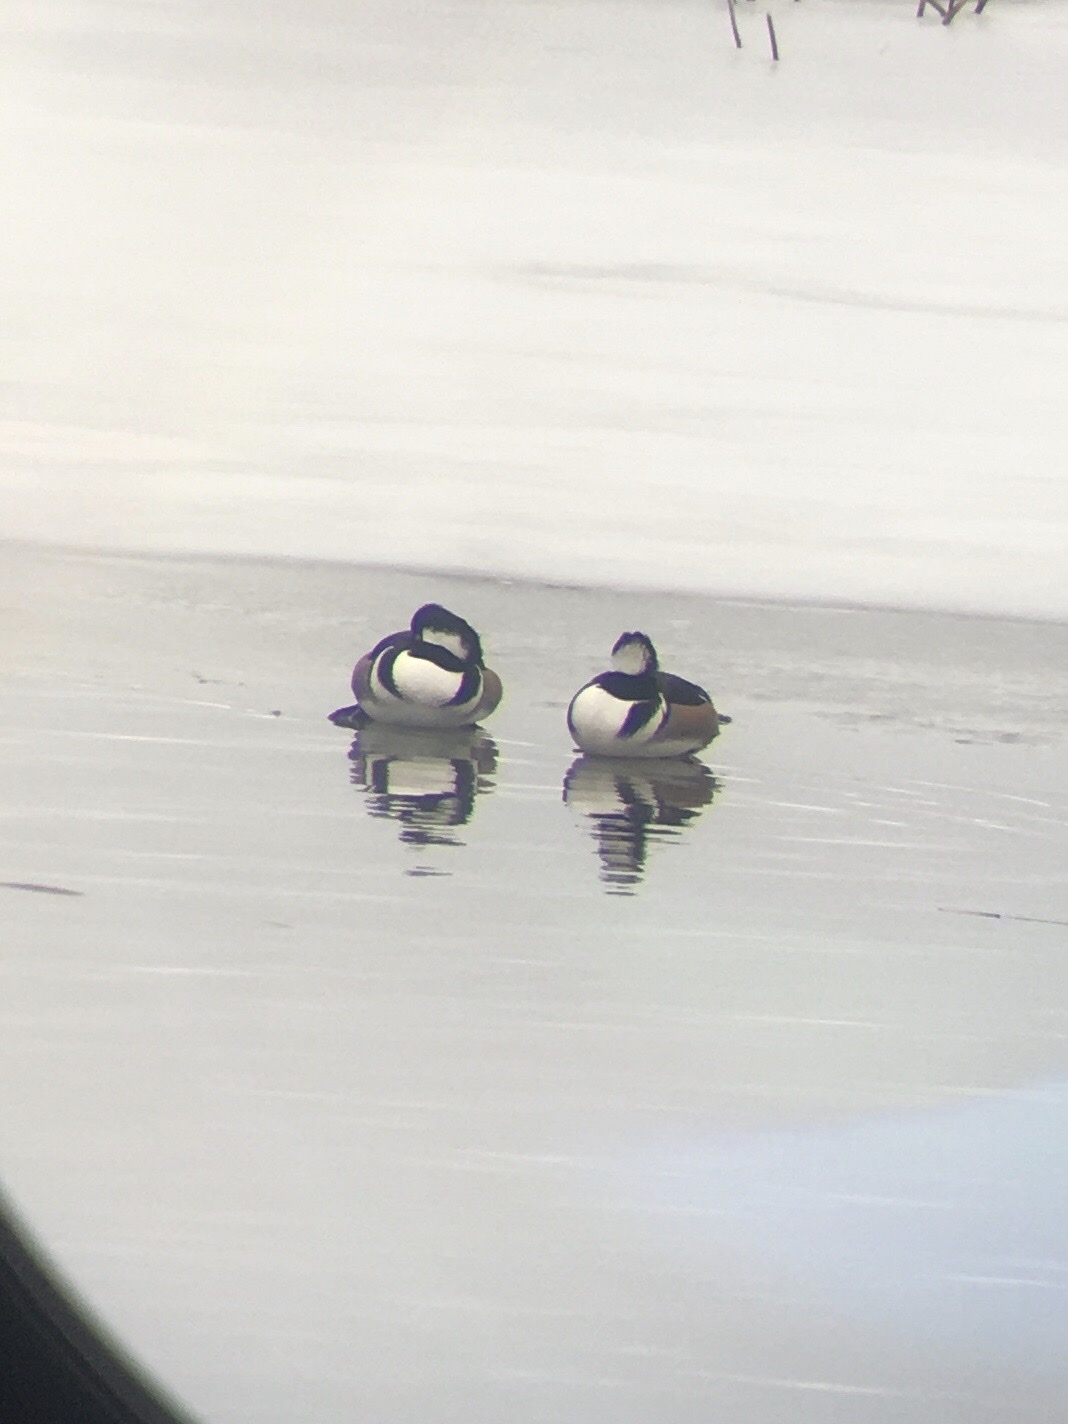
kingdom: Animalia
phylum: Chordata
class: Aves
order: Anseriformes
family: Anatidae
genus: Lophodytes
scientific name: Lophodytes cucullatus
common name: Hooded merganser
